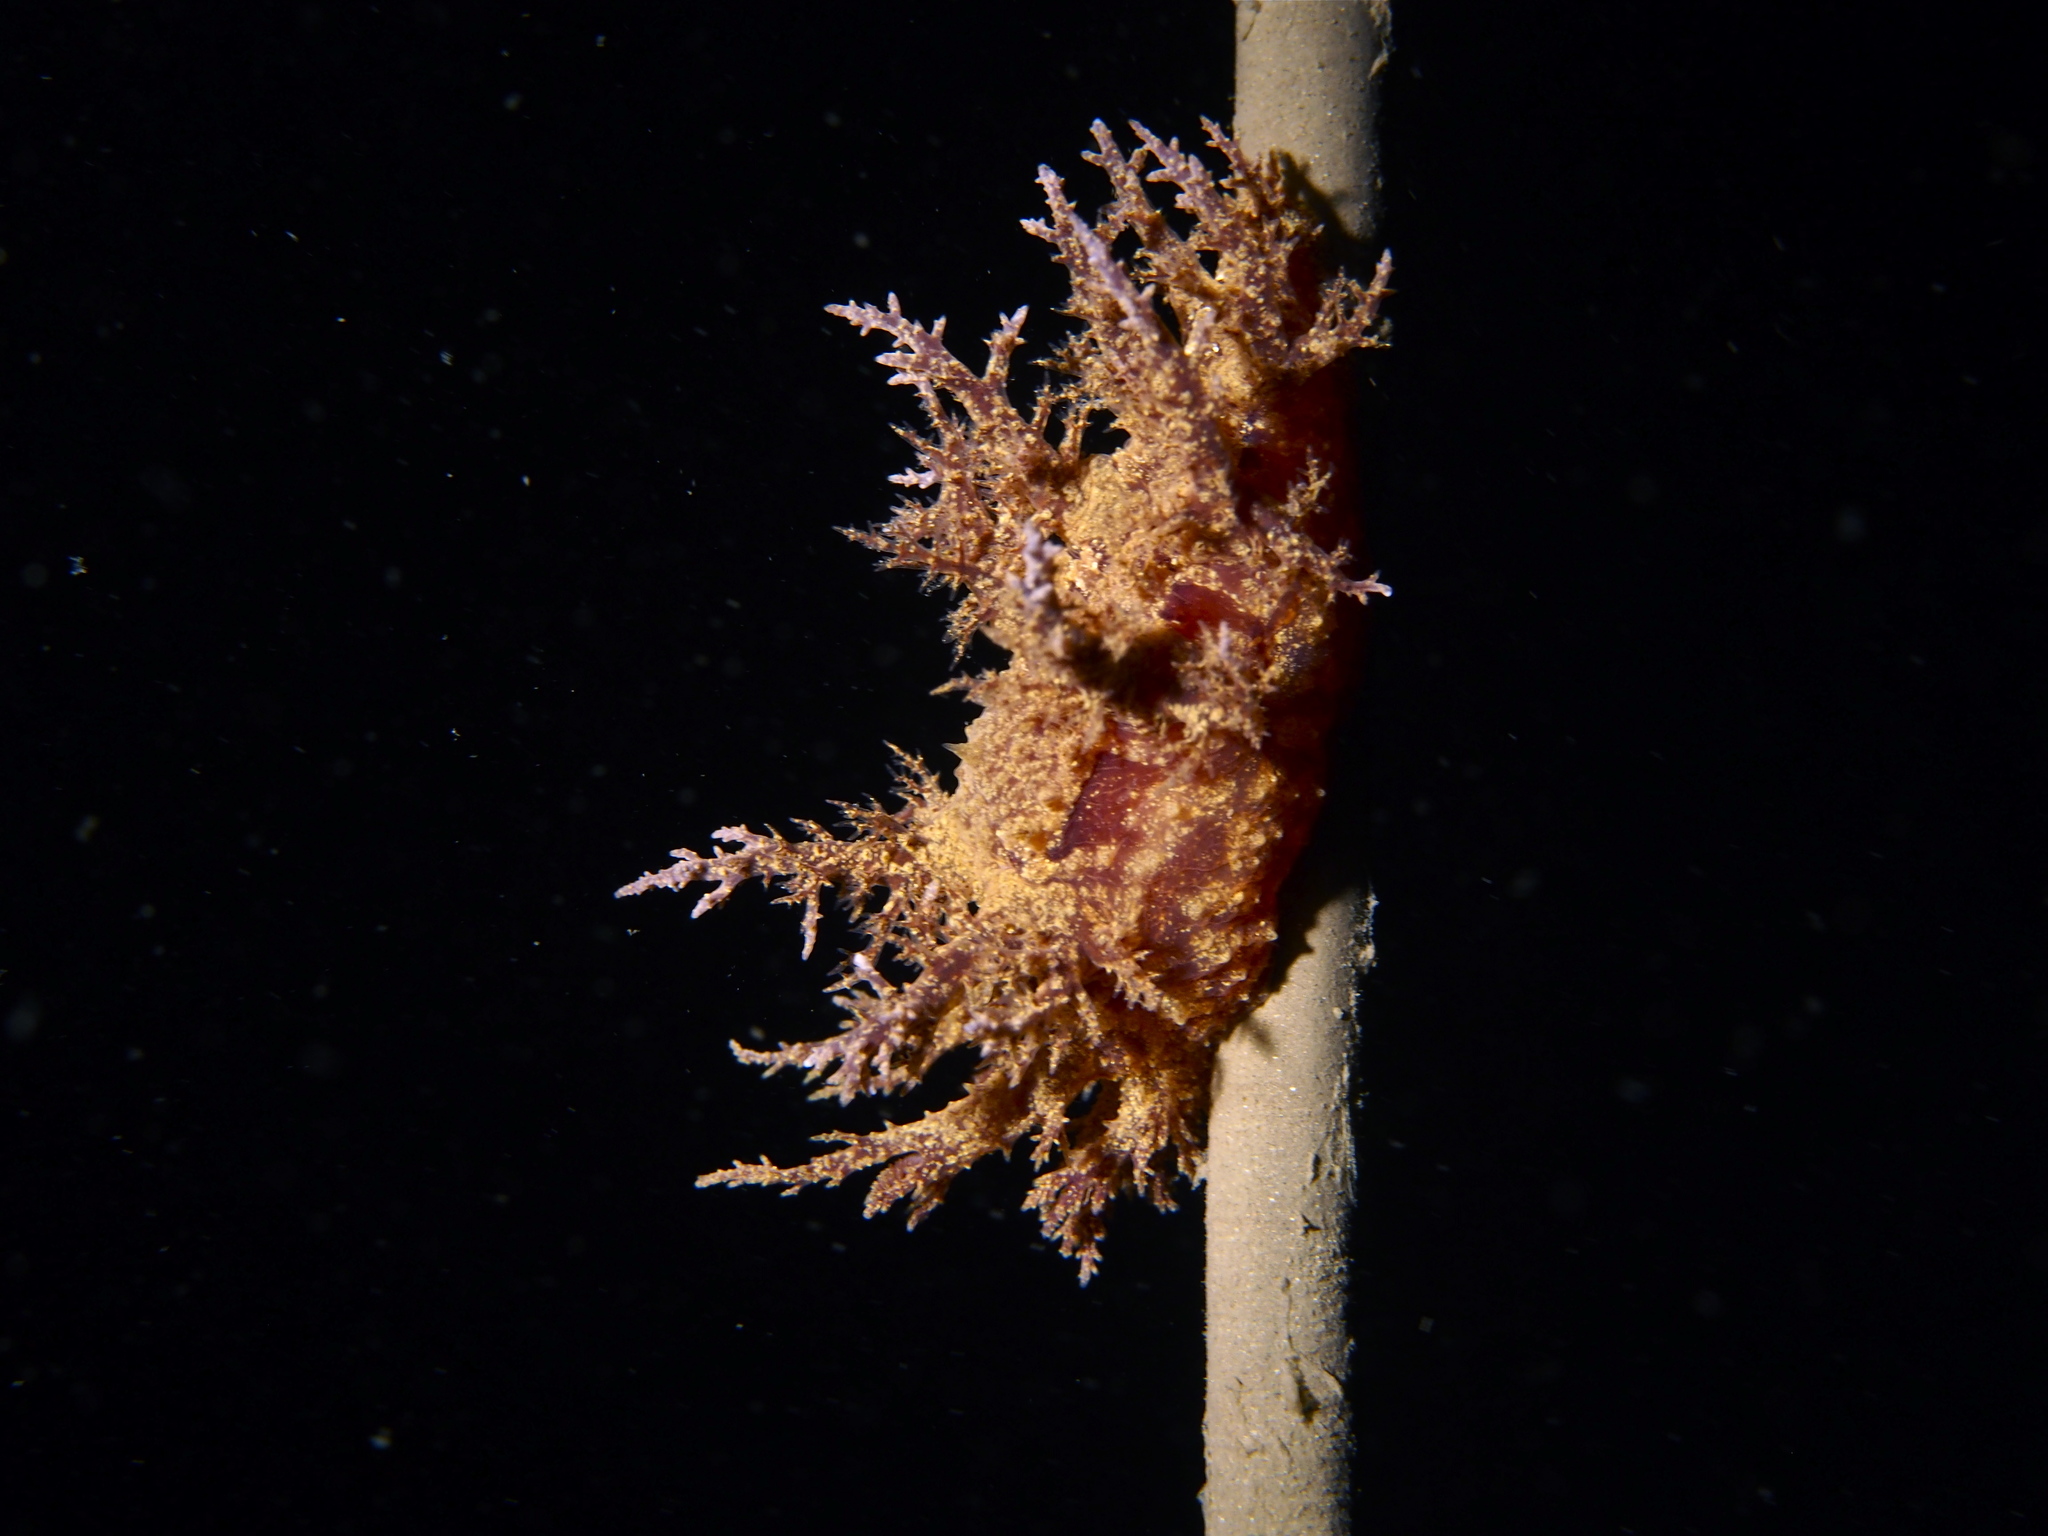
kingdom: Animalia
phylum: Mollusca
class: Gastropoda
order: Nudibranchia
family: Dendronotidae
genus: Dendronotus
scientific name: Dendronotus europaeus
